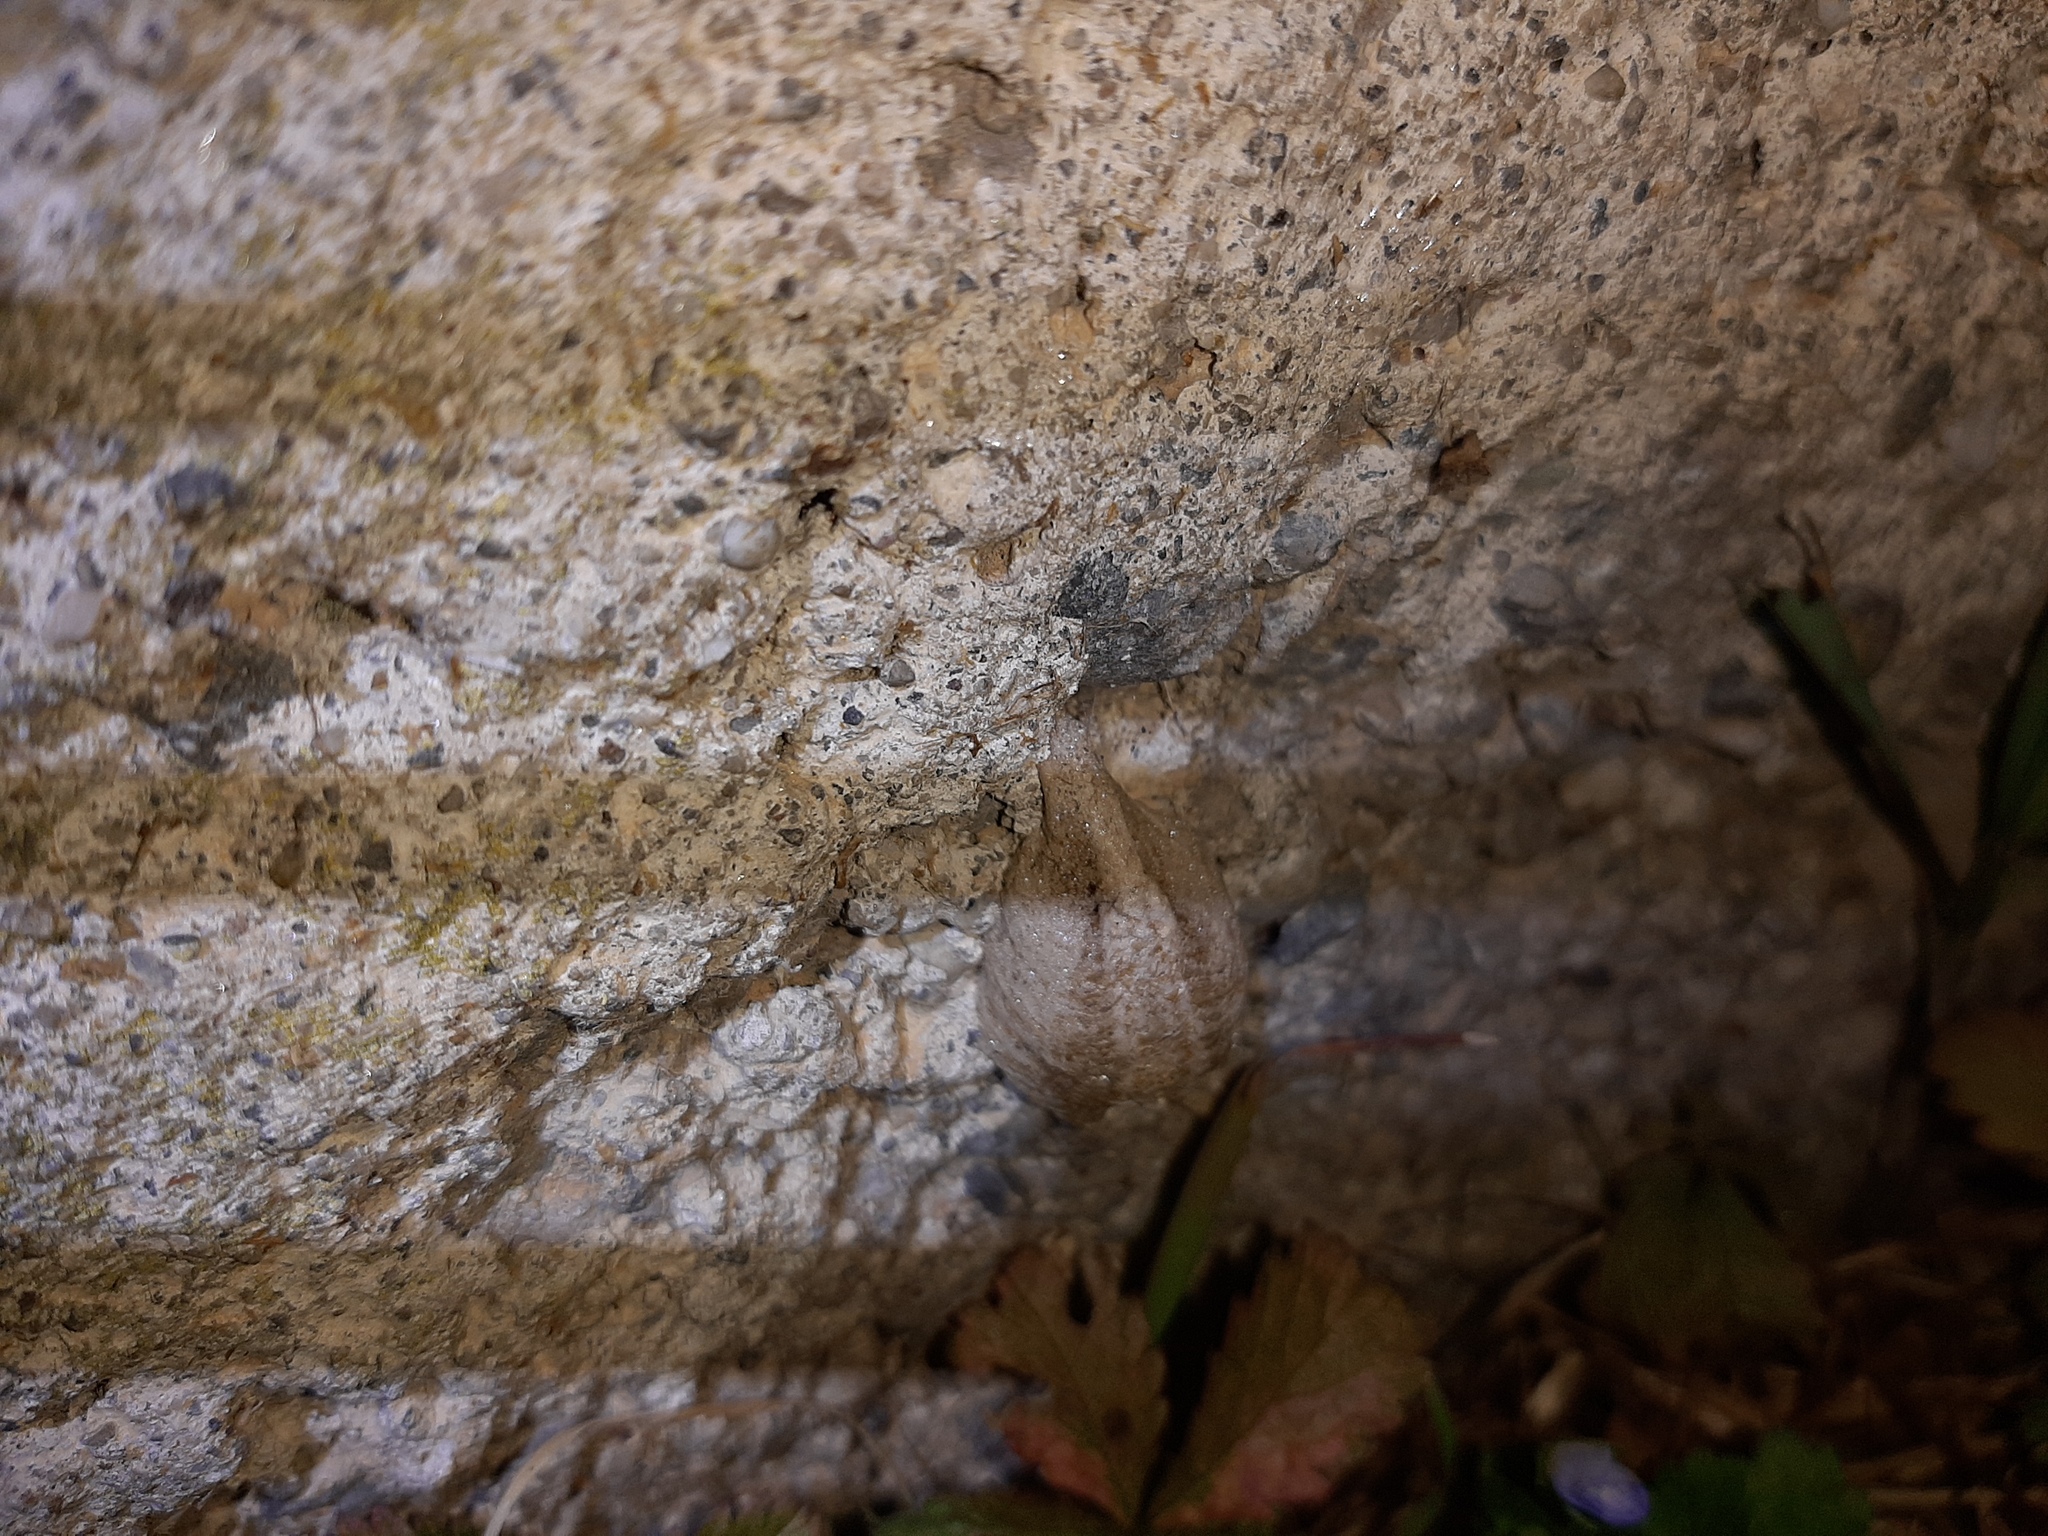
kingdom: Animalia
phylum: Arthropoda
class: Insecta
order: Mantodea
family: Mantidae
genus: Mantis
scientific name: Mantis religiosa
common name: Praying mantis
